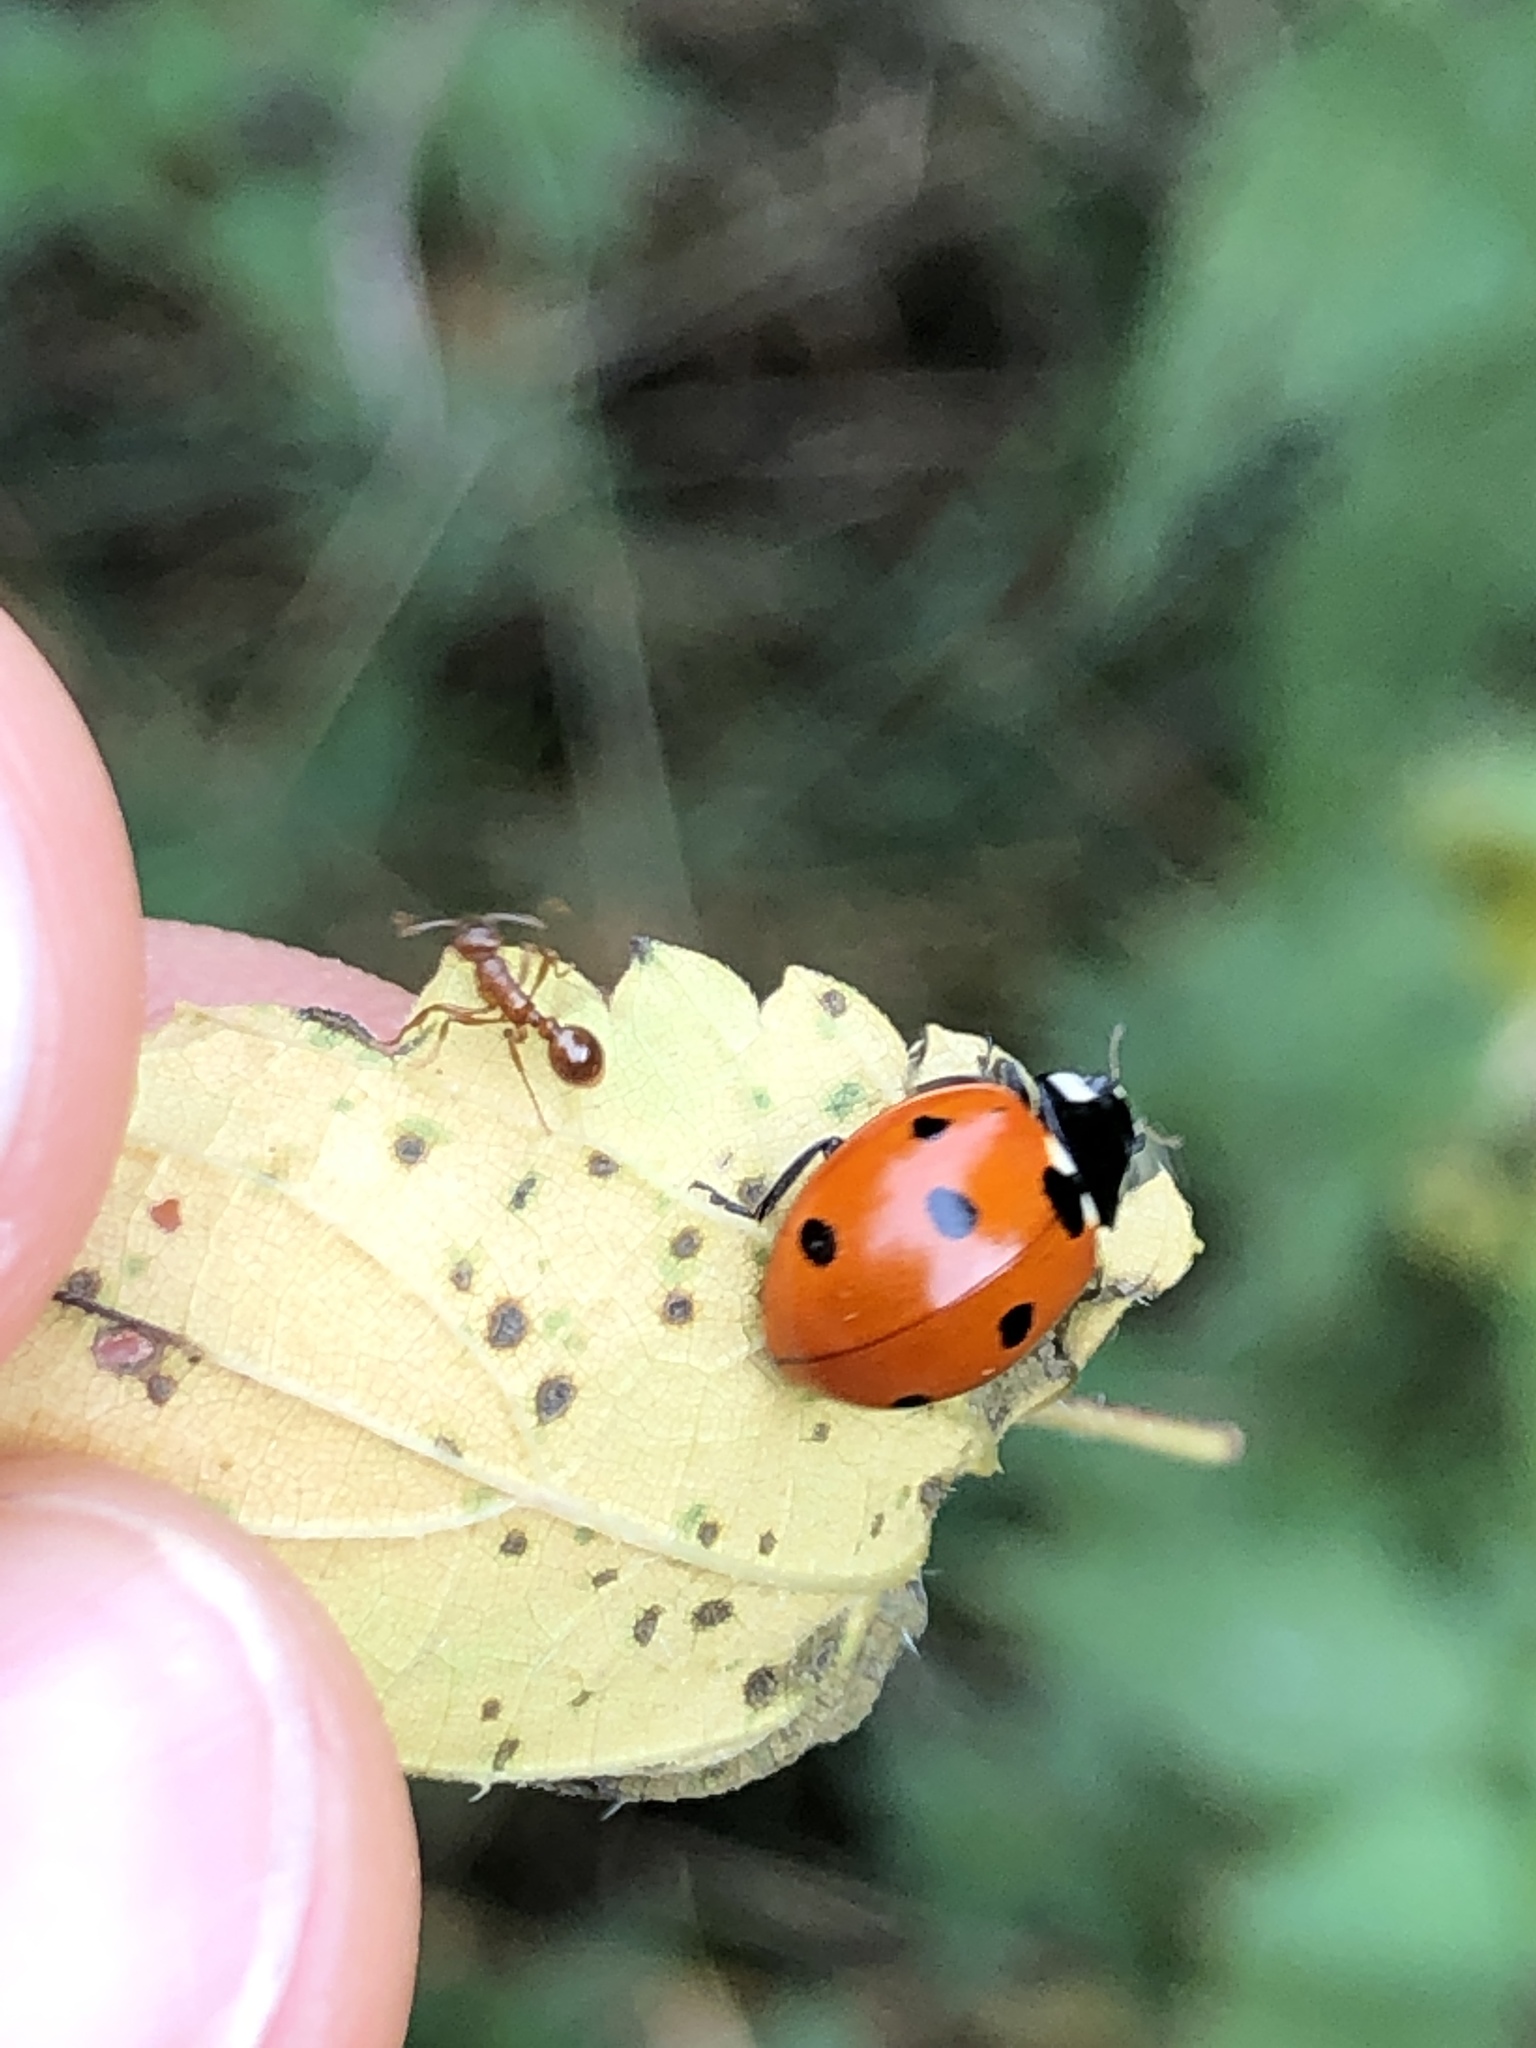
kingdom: Animalia
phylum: Arthropoda
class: Insecta
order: Coleoptera
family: Coccinellidae
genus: Coccinella
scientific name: Coccinella septempunctata
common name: Sevenspotted lady beetle
